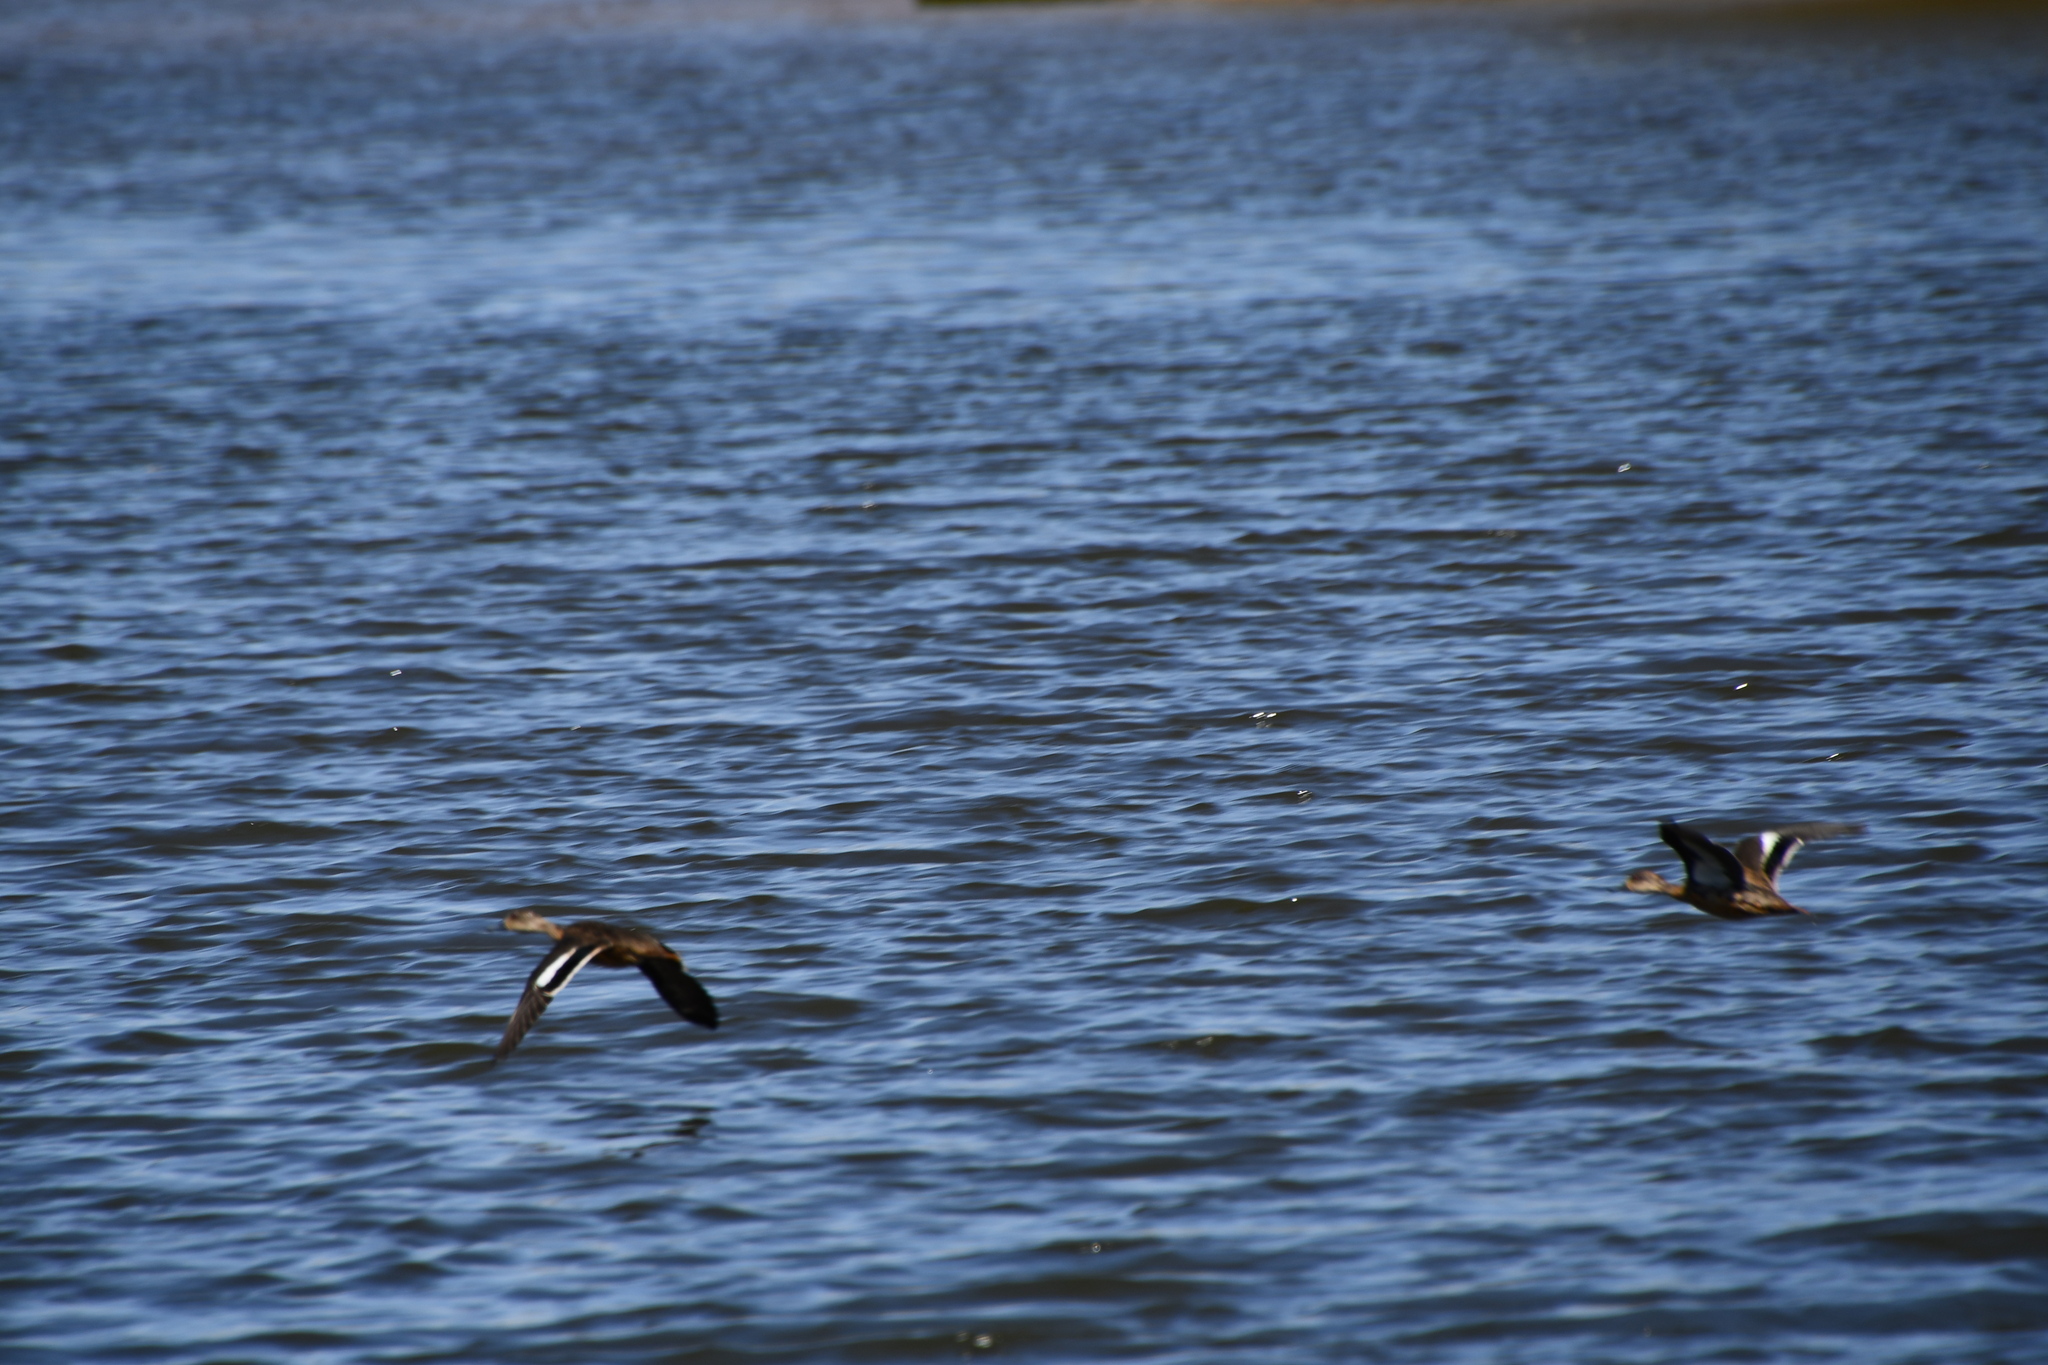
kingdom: Animalia
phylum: Chordata
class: Aves
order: Anseriformes
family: Anatidae
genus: Anas
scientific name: Anas gracilis
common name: Grey teal
